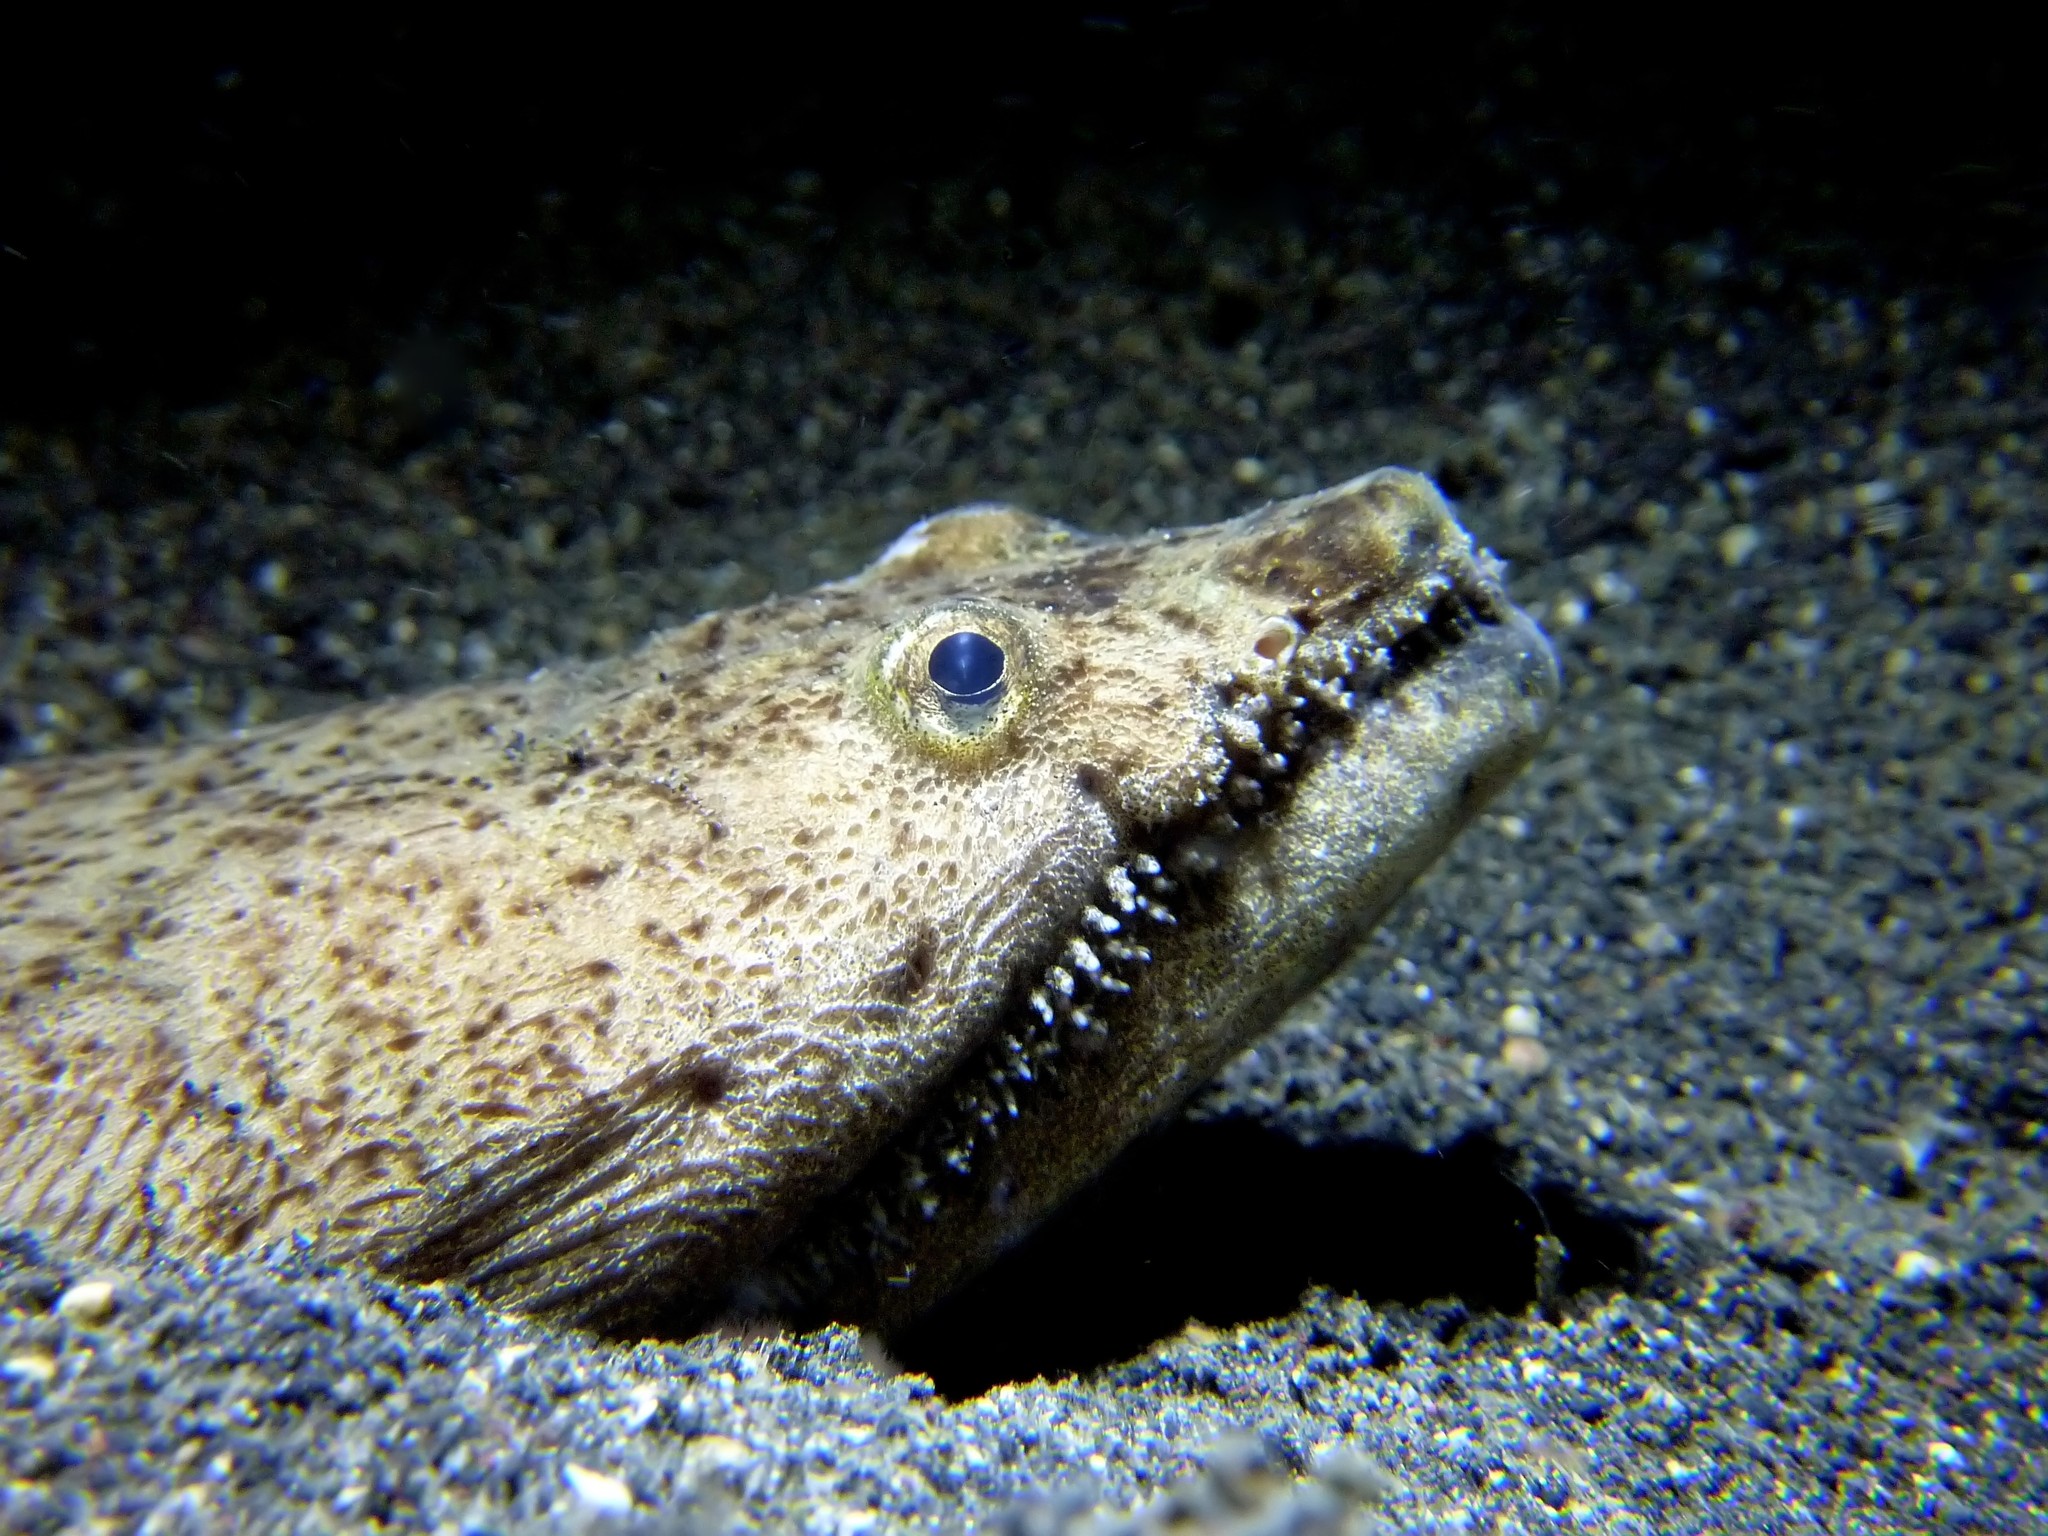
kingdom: Animalia
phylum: Chordata
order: Anguilliformes
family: Ophichthidae
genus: Brachysomophis
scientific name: Brachysomophis cirrocheilos
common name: Stargazer snake eel
